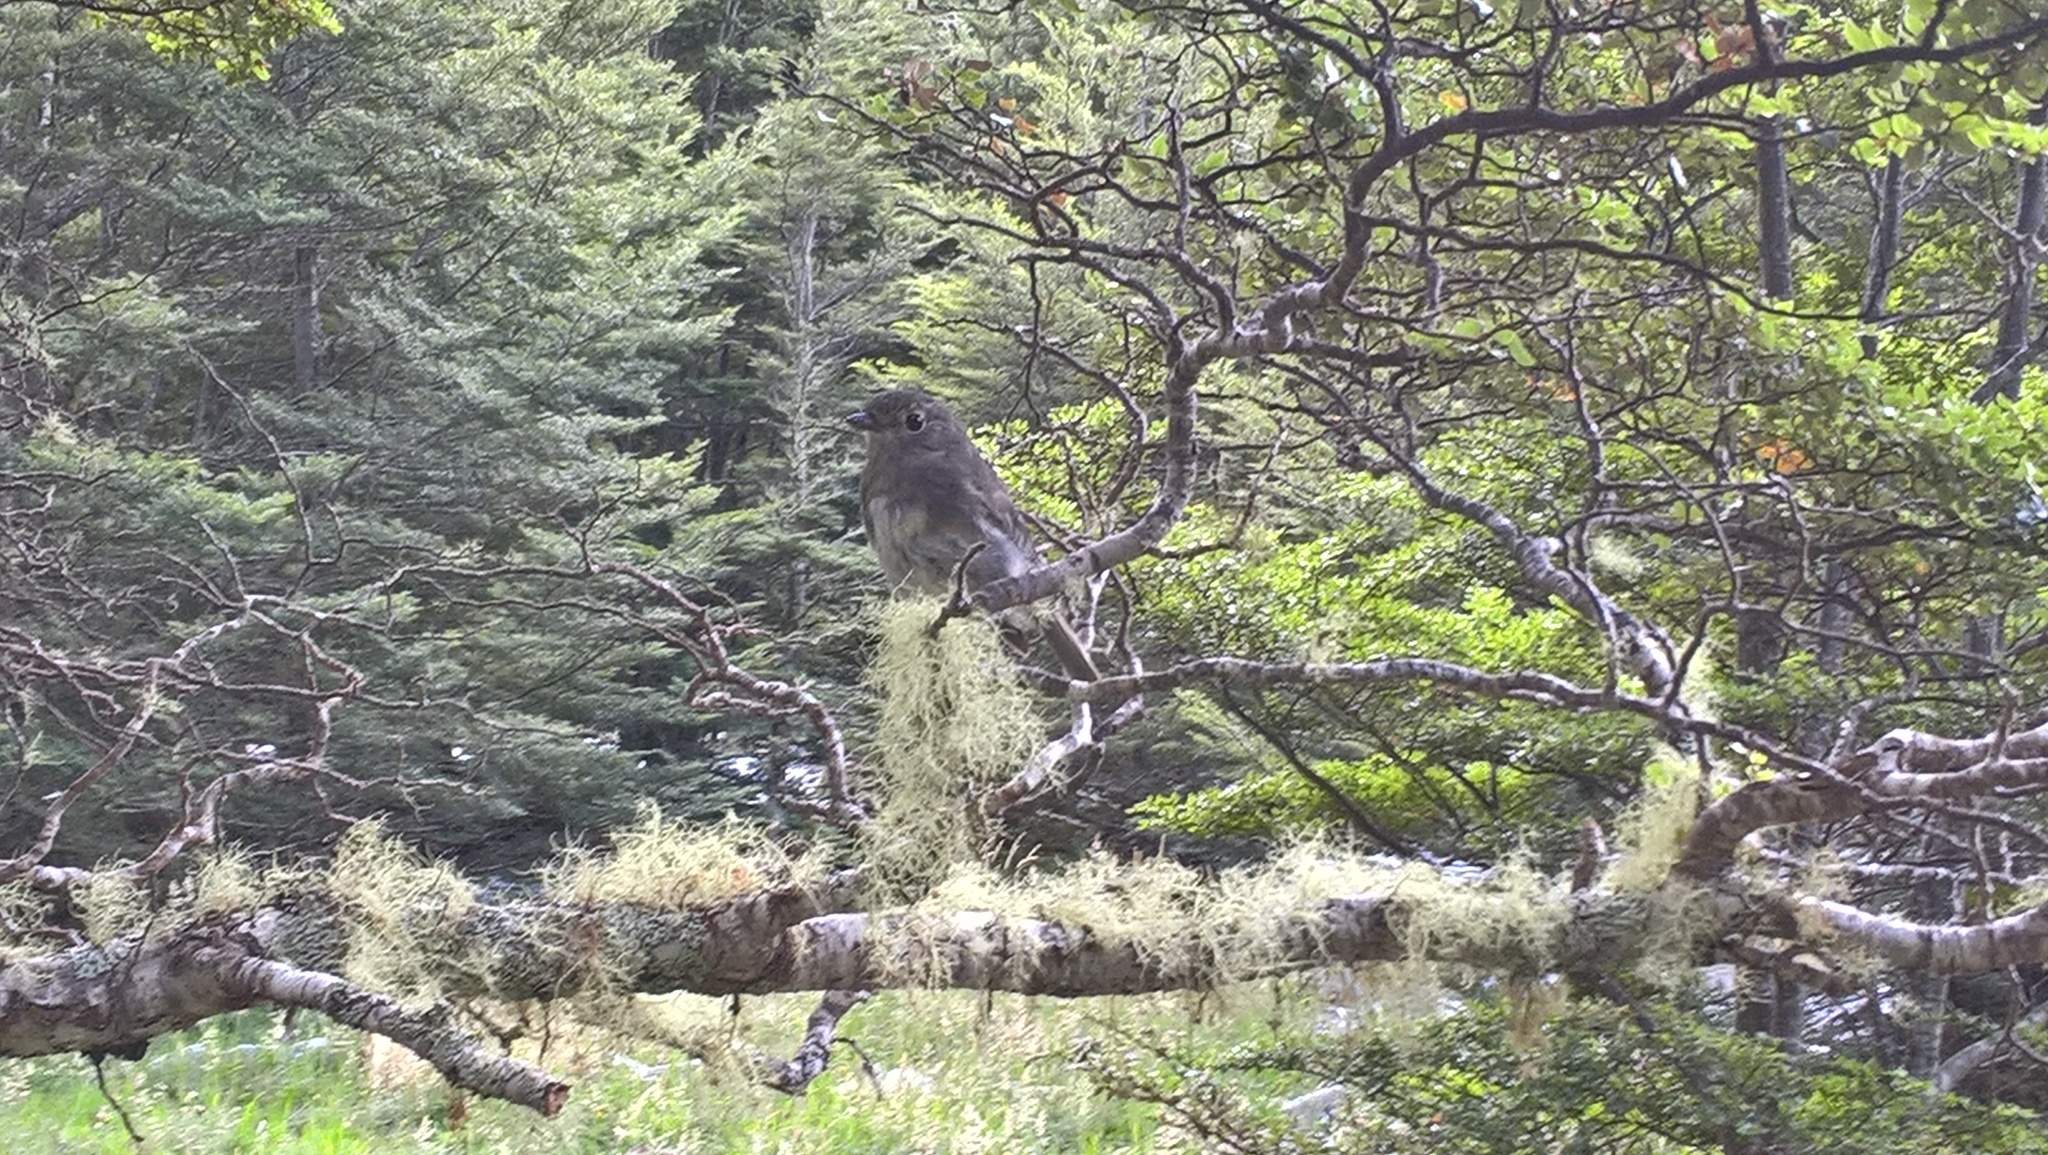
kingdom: Animalia
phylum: Chordata
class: Aves
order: Passeriformes
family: Petroicidae
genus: Petroica
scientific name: Petroica australis
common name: New zealand robin
